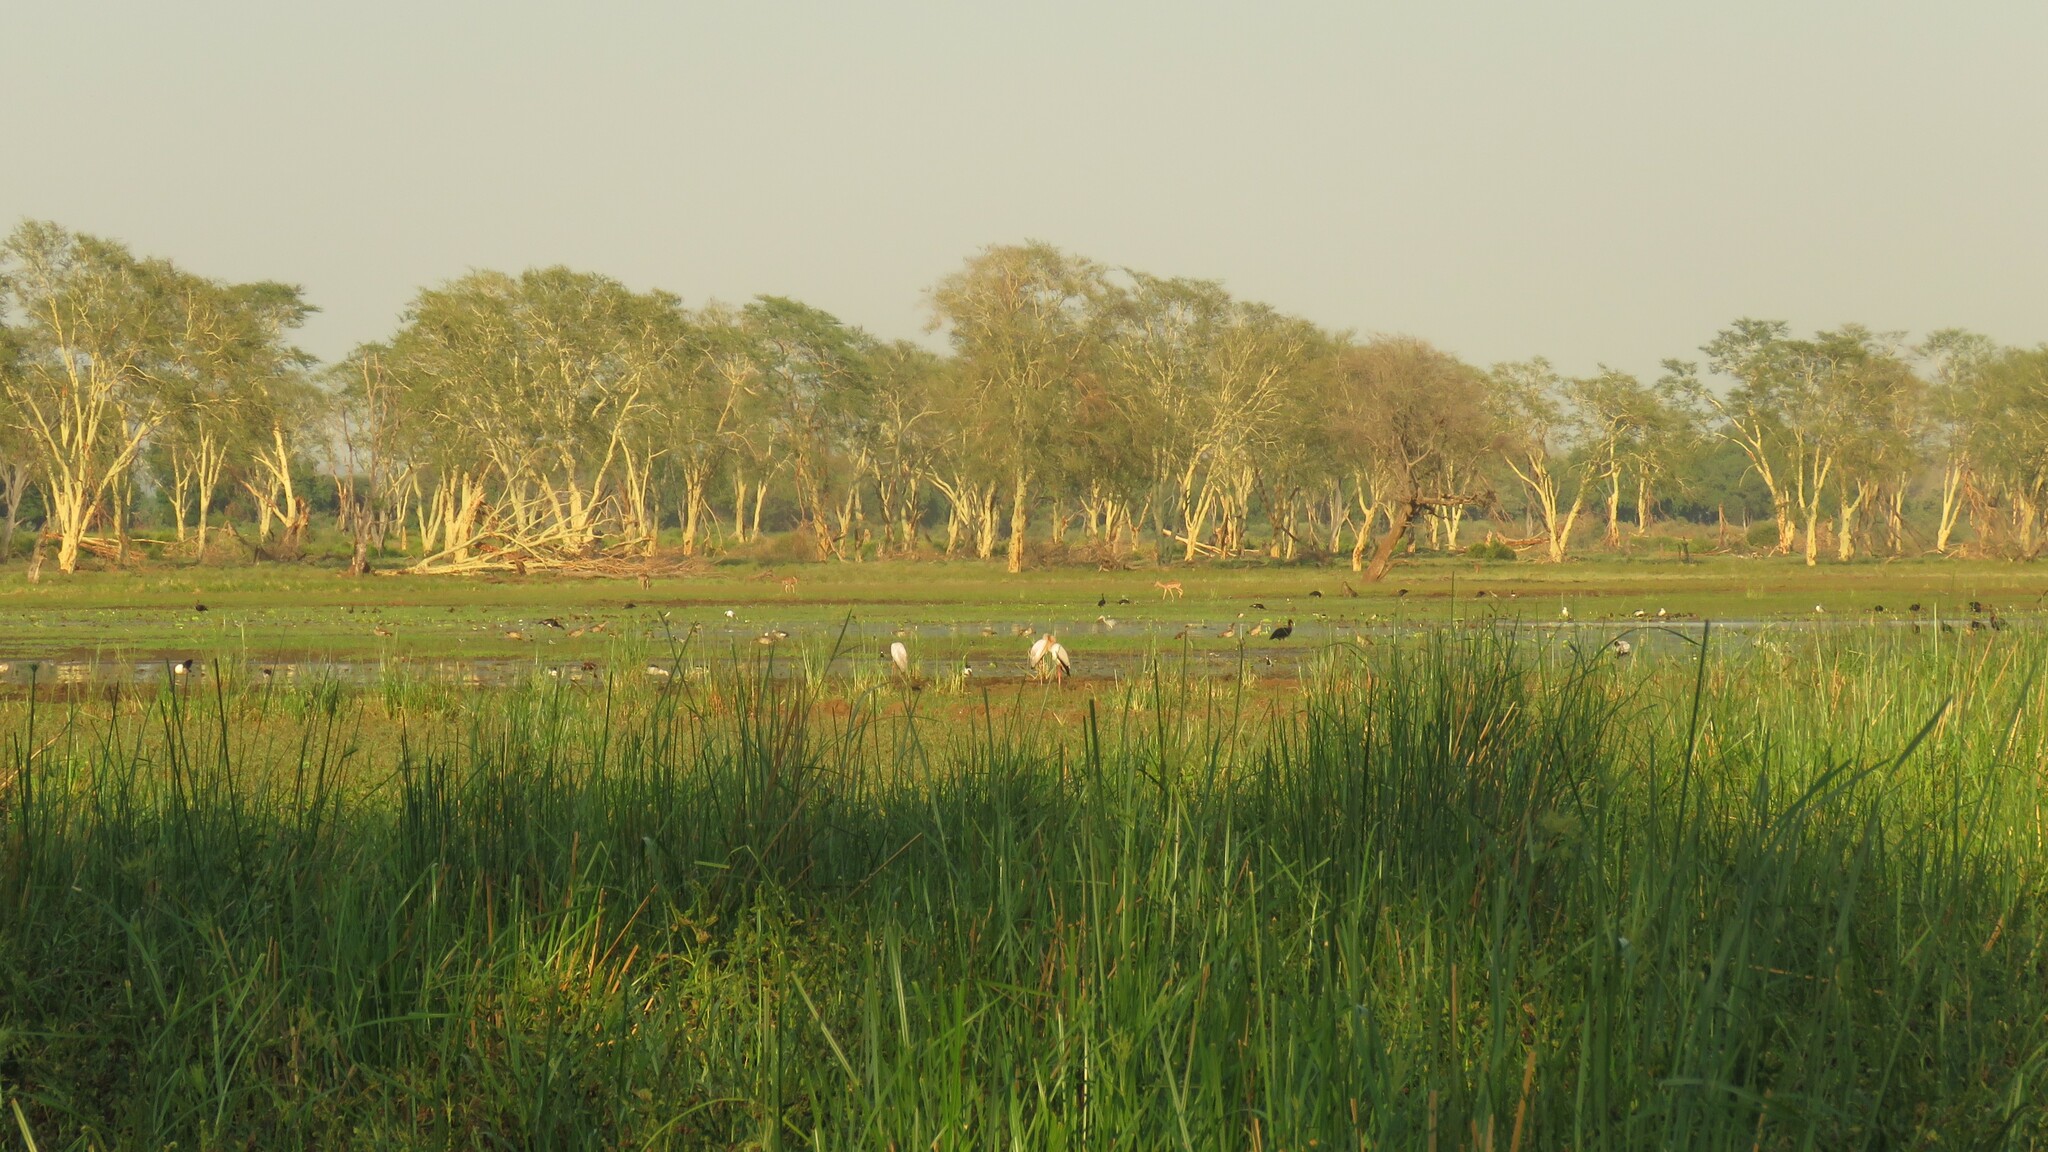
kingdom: Animalia
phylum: Chordata
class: Aves
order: Pelecaniformes
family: Ardeidae
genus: Ardea
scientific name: Ardea cinerea
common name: Grey heron
